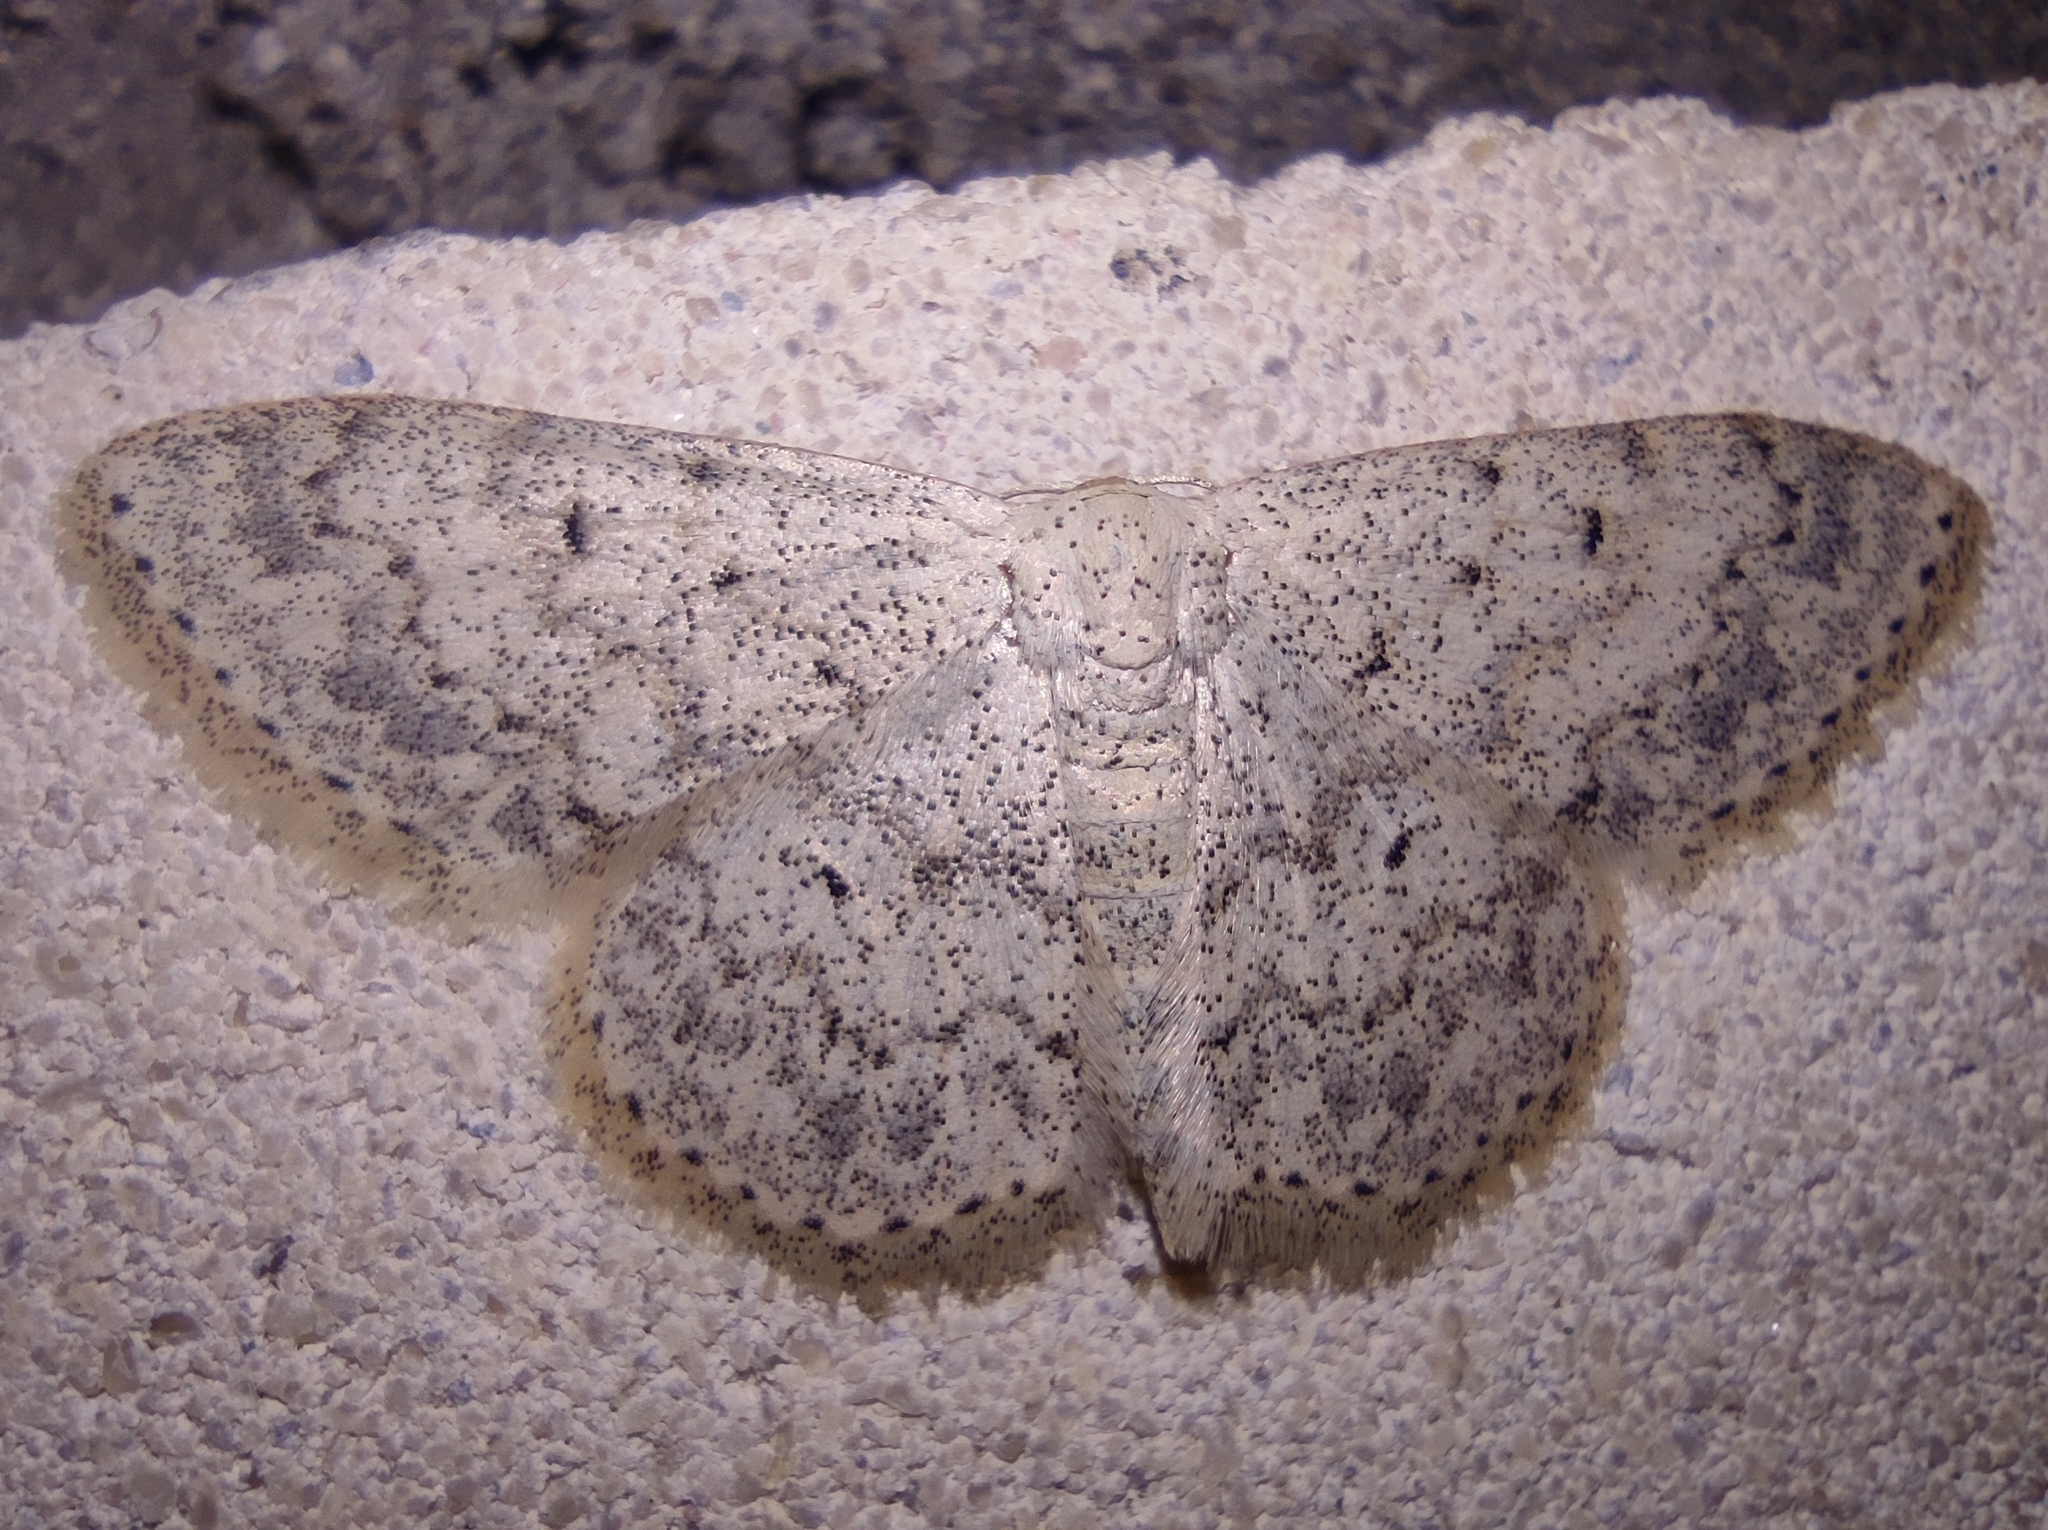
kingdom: Animalia
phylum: Arthropoda
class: Insecta
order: Lepidoptera
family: Geometridae
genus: Scopula
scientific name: Scopula marginepunctata
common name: Mullein wave
